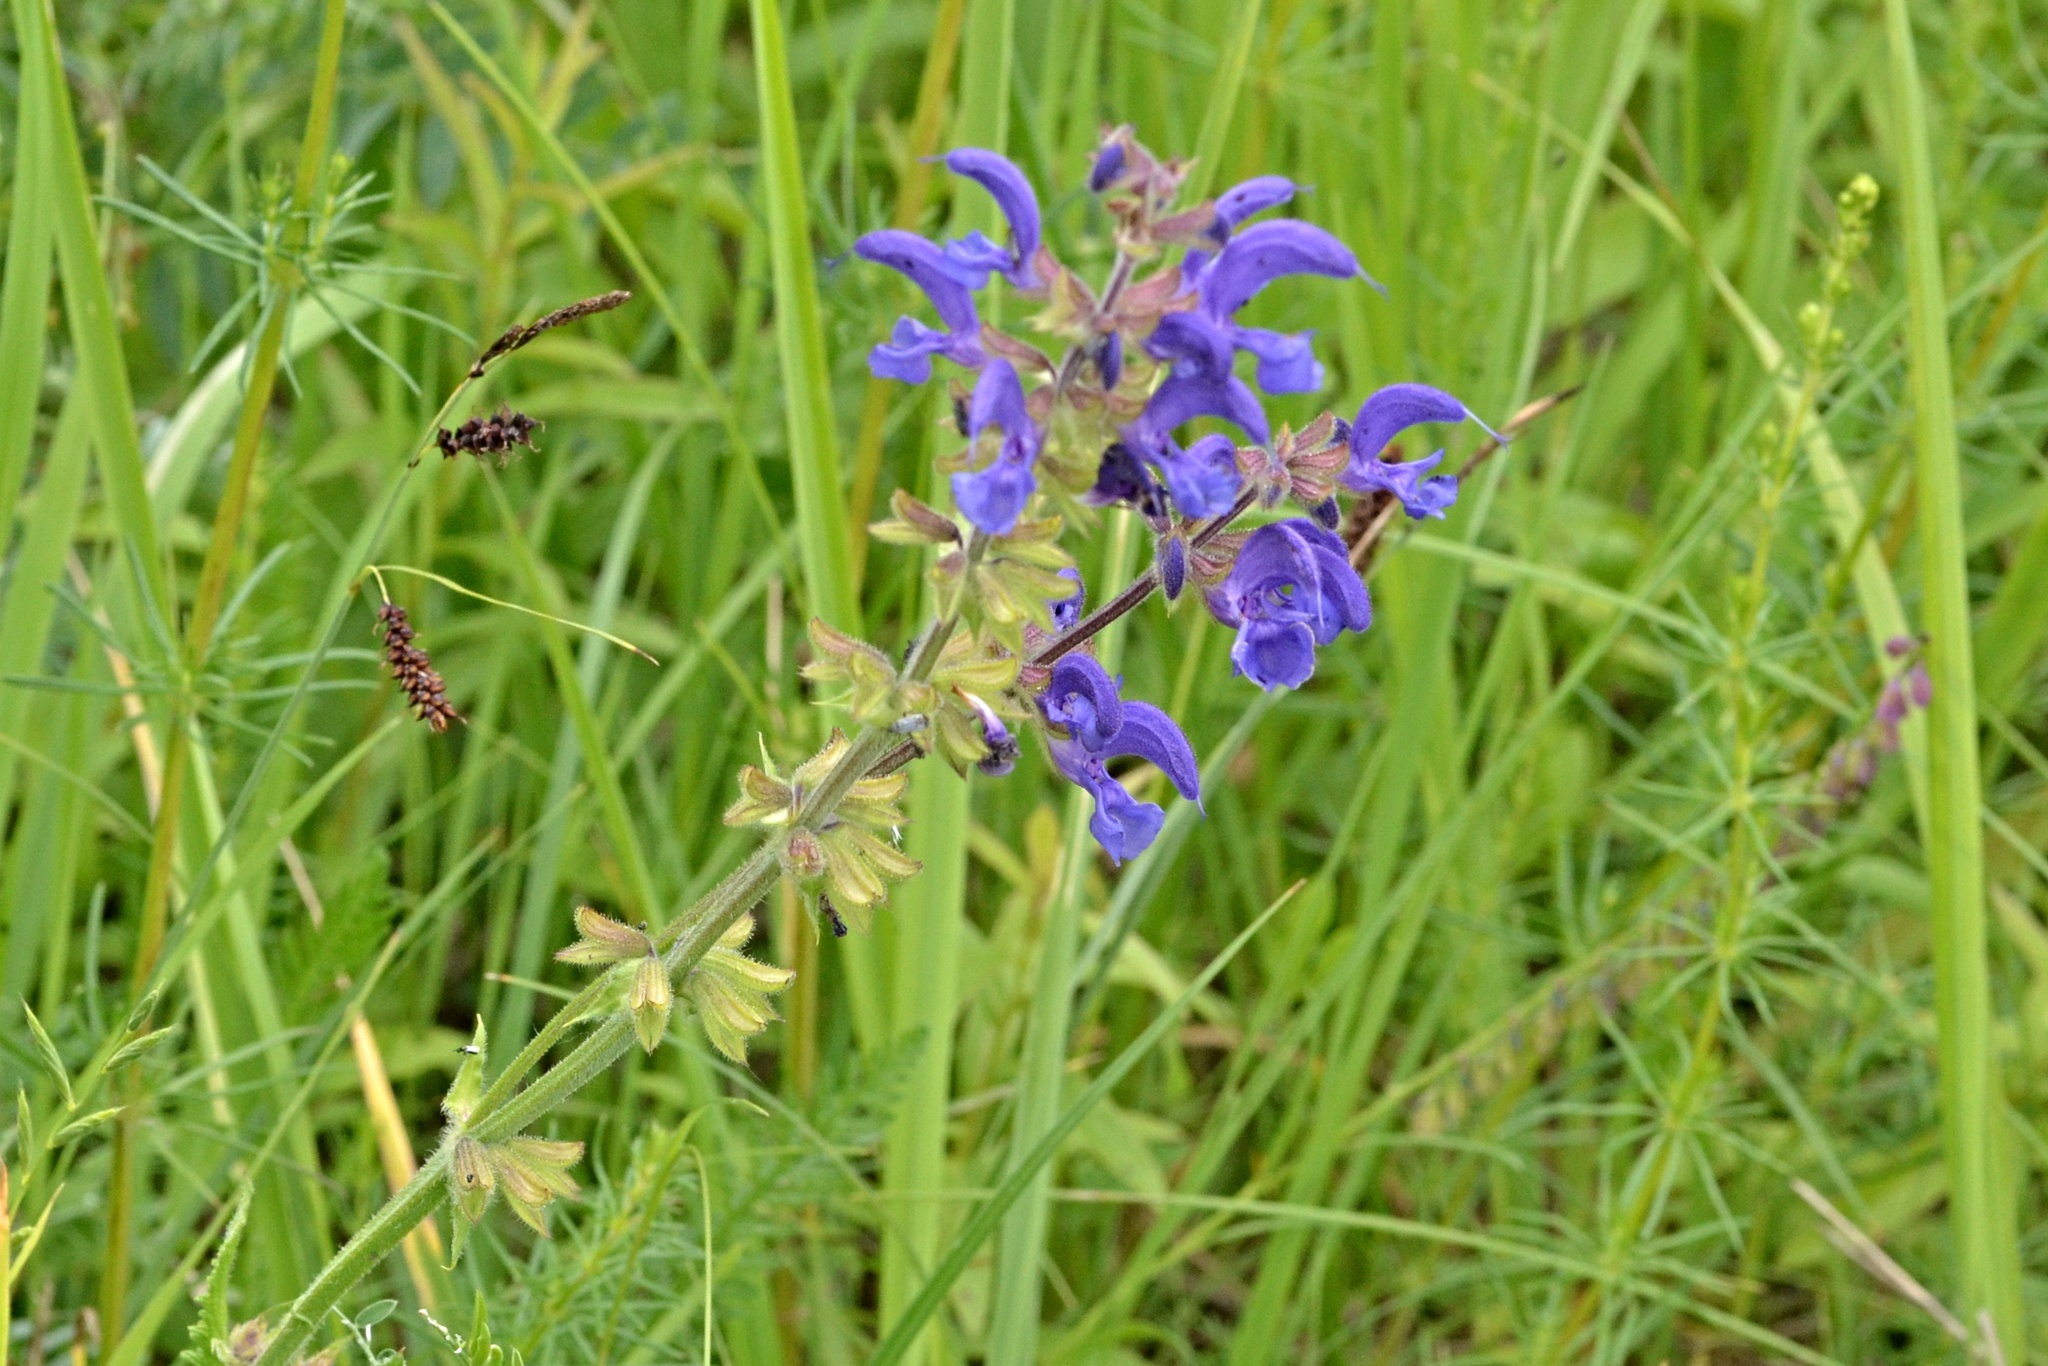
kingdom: Plantae
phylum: Tracheophyta
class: Magnoliopsida
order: Lamiales
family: Lamiaceae
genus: Salvia
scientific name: Salvia pratensis
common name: Meadow sage
